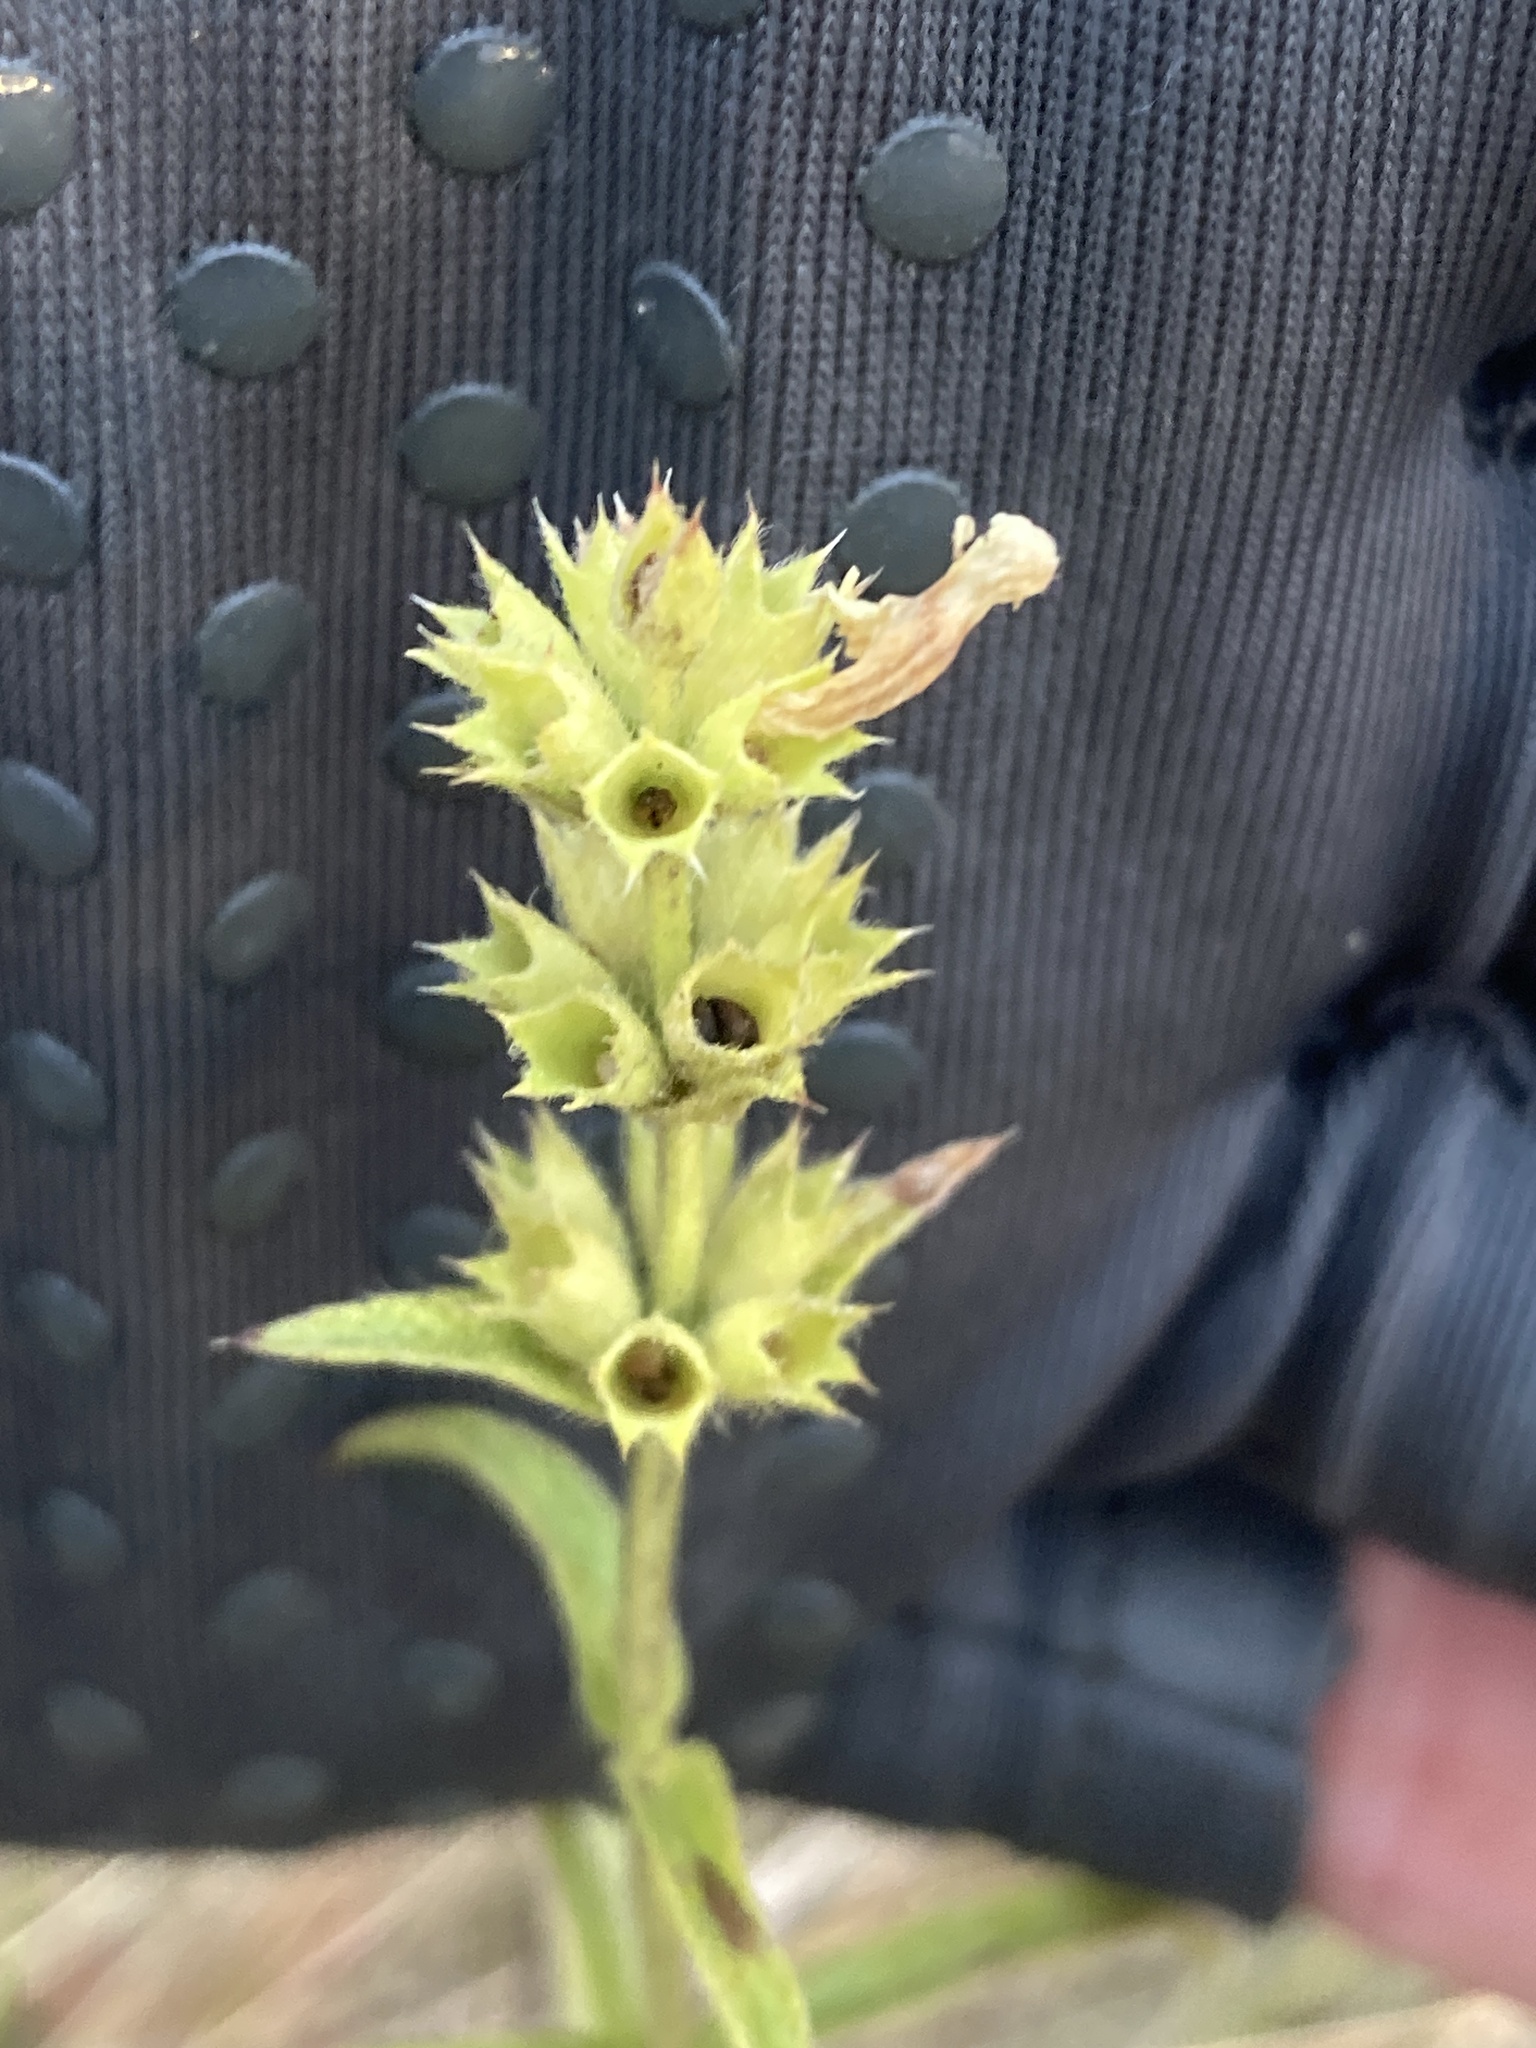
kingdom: Plantae
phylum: Tracheophyta
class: Magnoliopsida
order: Lamiales
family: Lamiaceae
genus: Stachys
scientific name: Stachys recta
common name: Perennial yellow-woundwort
